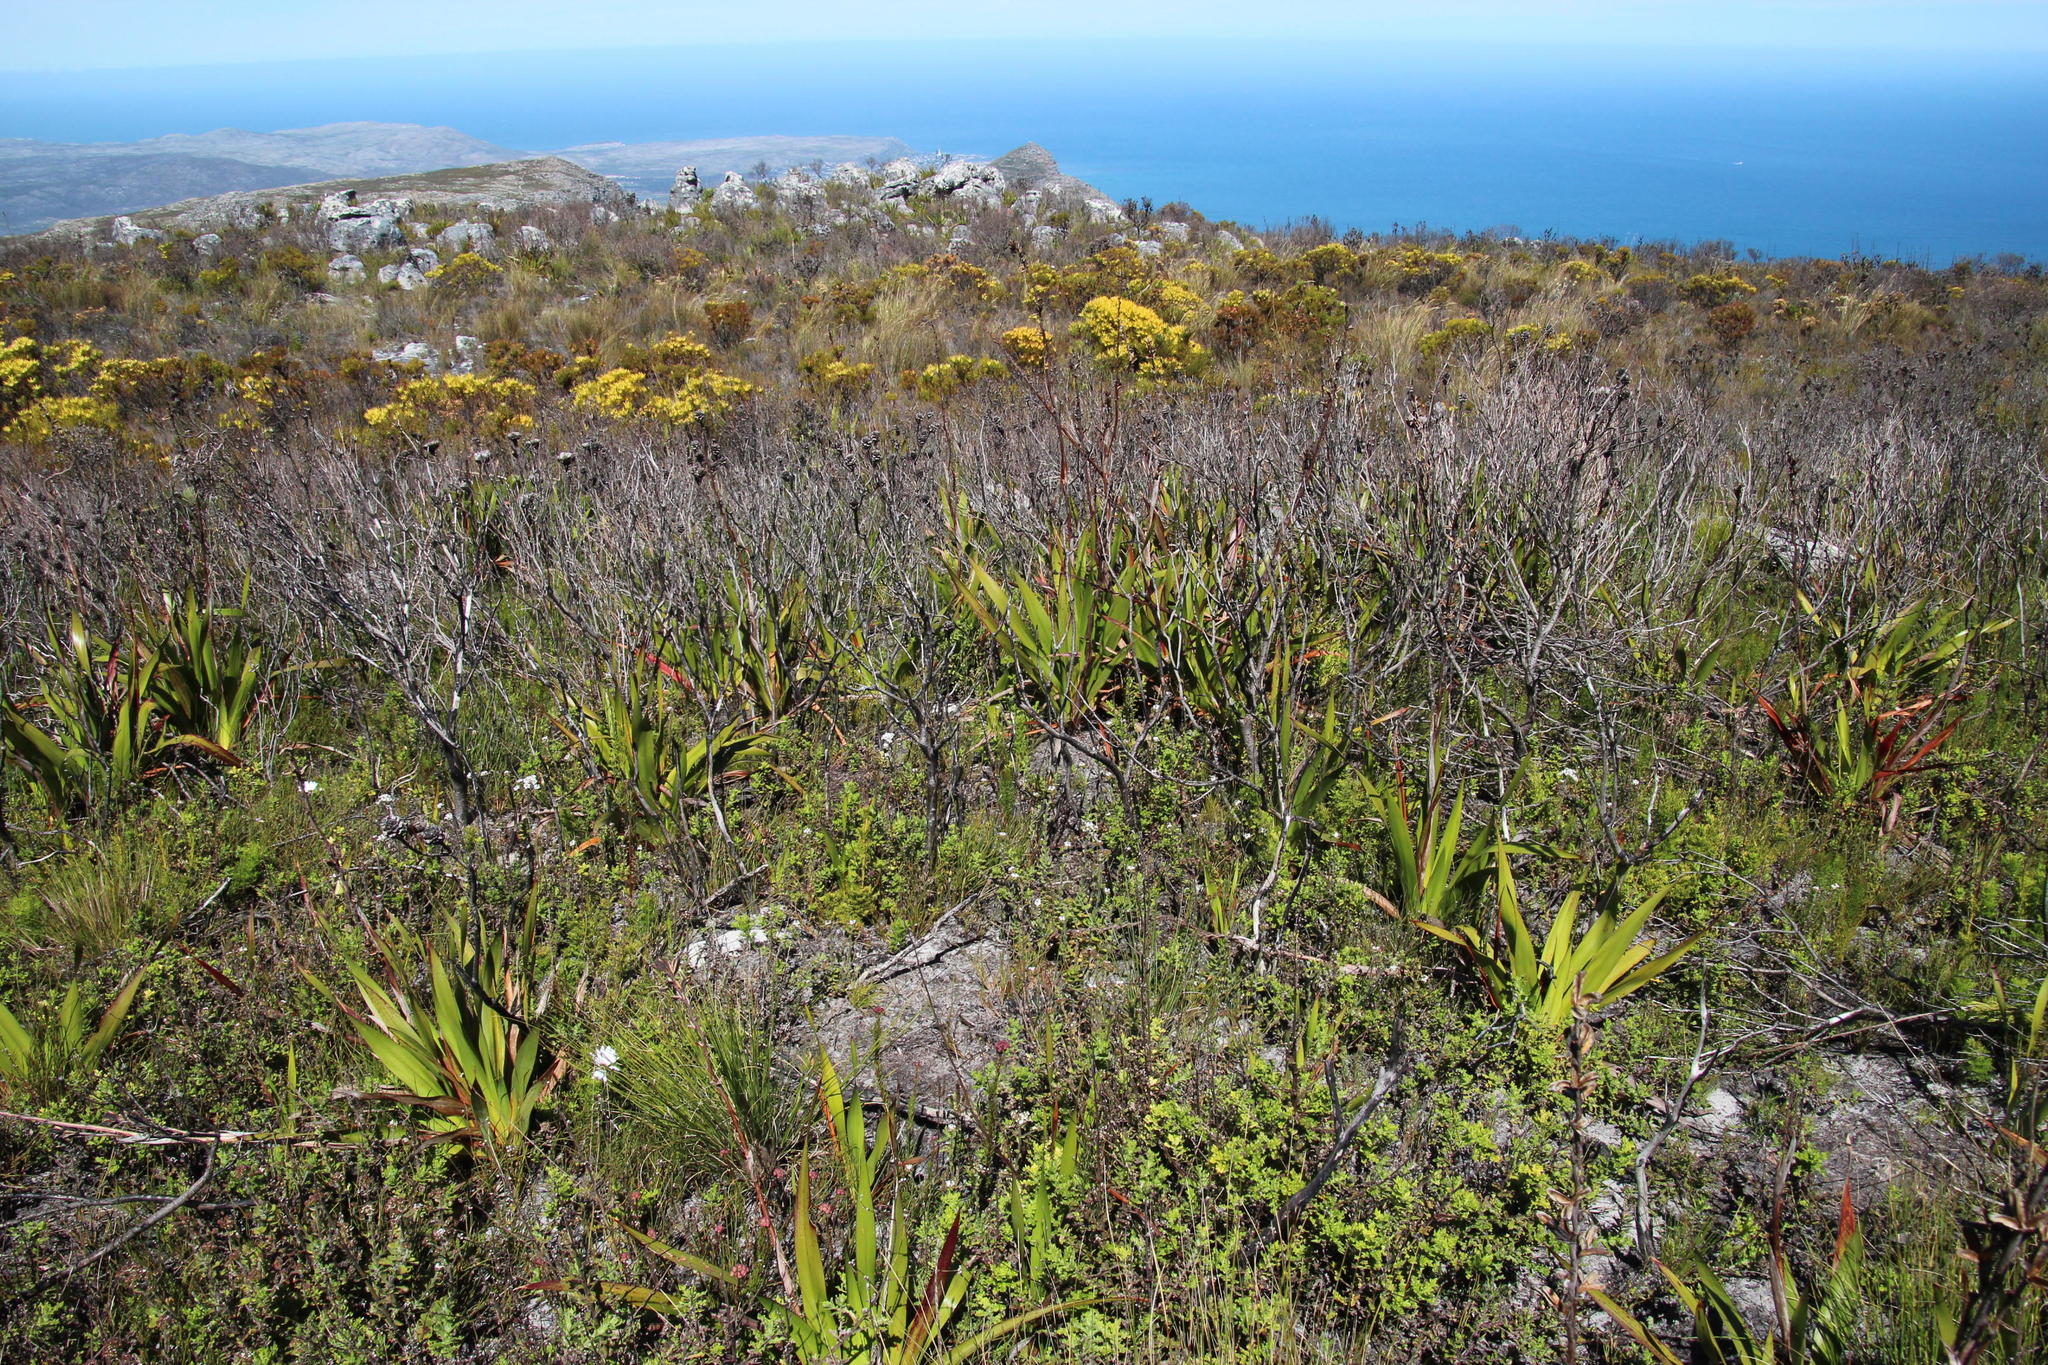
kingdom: Plantae
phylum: Tracheophyta
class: Magnoliopsida
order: Lamiales
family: Scrophulariaceae
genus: Pseudoselago
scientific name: Pseudoselago peninsulae
